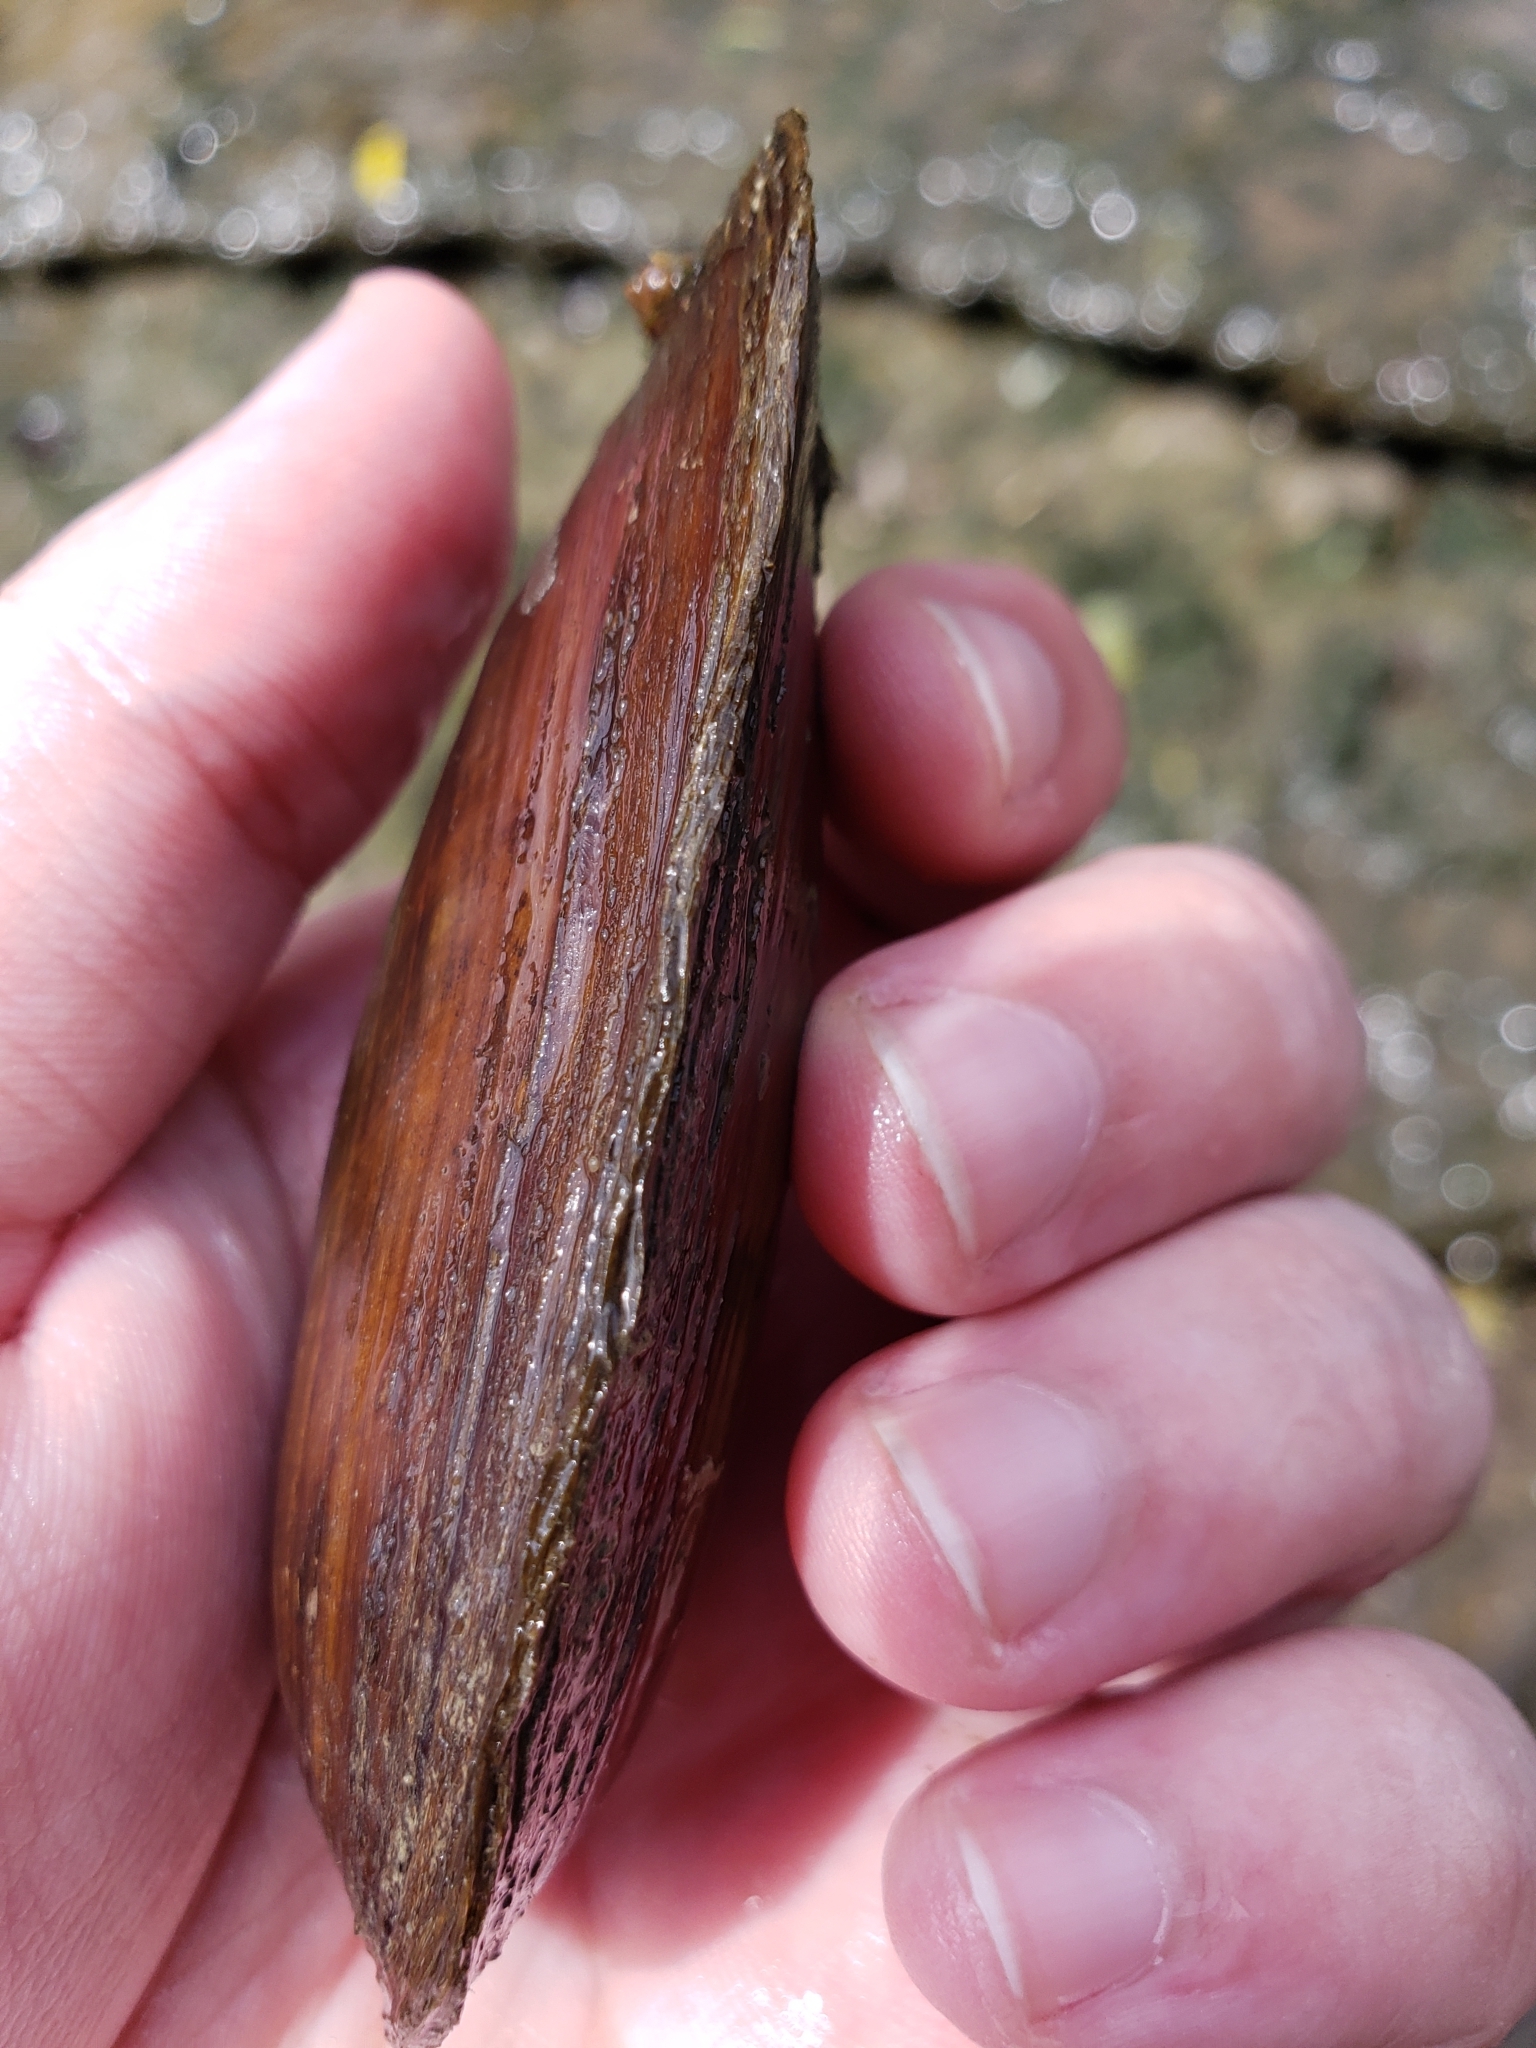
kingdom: Animalia
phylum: Mollusca
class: Bivalvia
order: Unionida
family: Unionidae
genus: Eurynia
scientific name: Eurynia dilatata
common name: Spike
